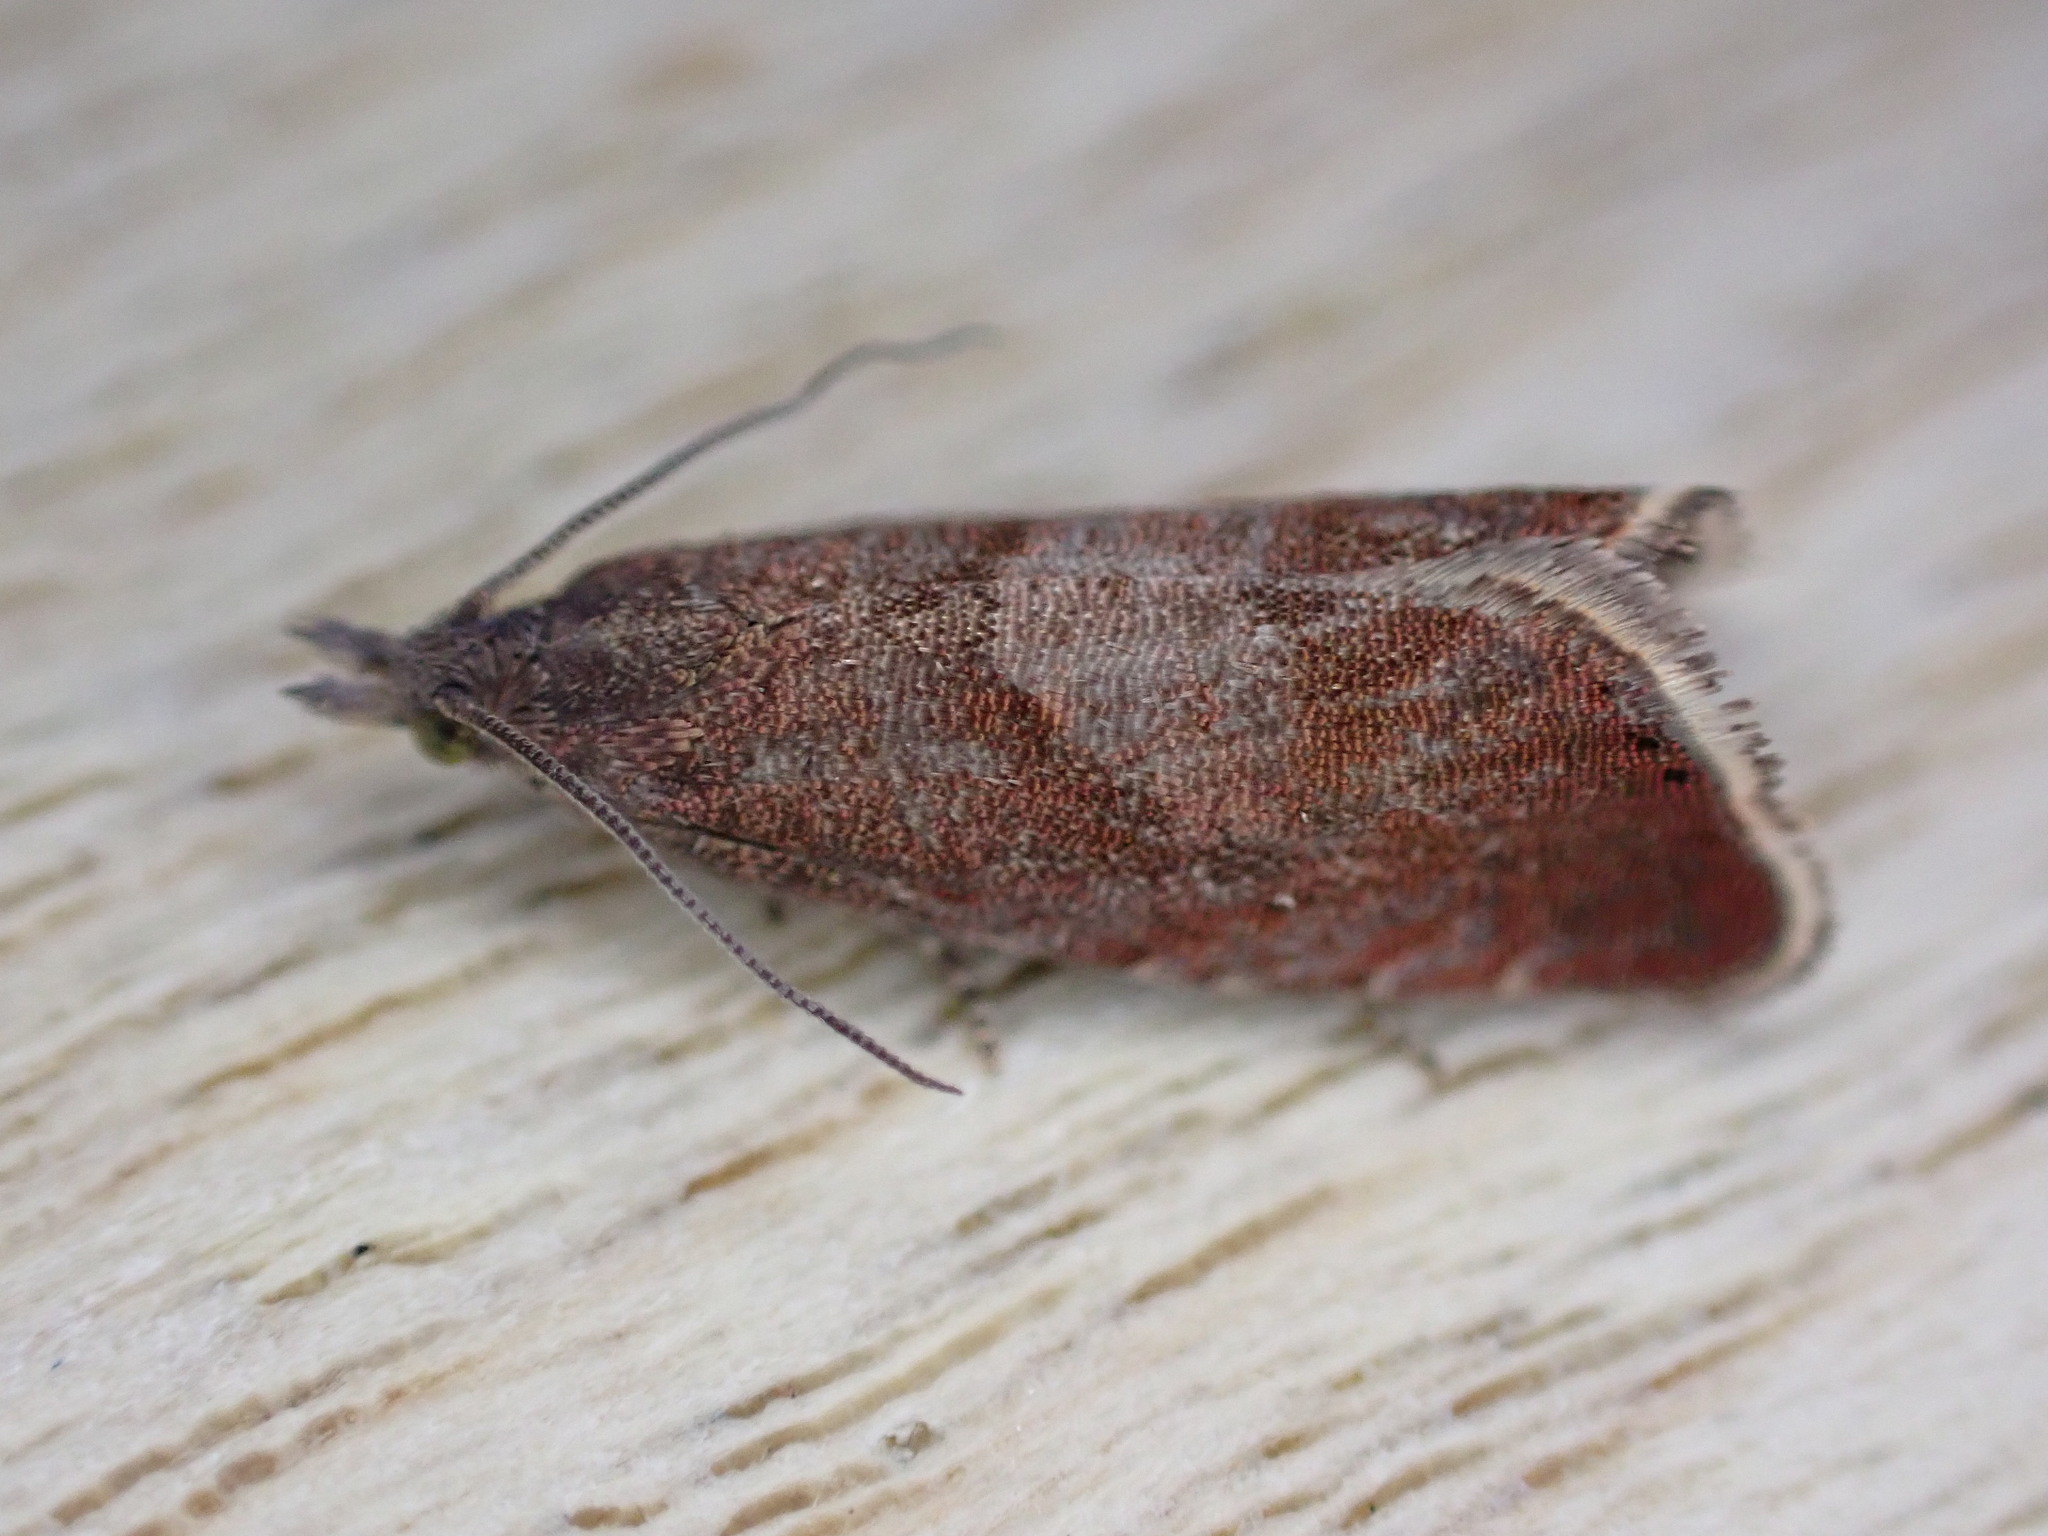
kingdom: Animalia
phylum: Arthropoda
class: Insecta
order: Lepidoptera
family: Tortricidae
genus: Dichrorampha
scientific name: Dichrorampha acuminatana
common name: Sharp-winged drill
